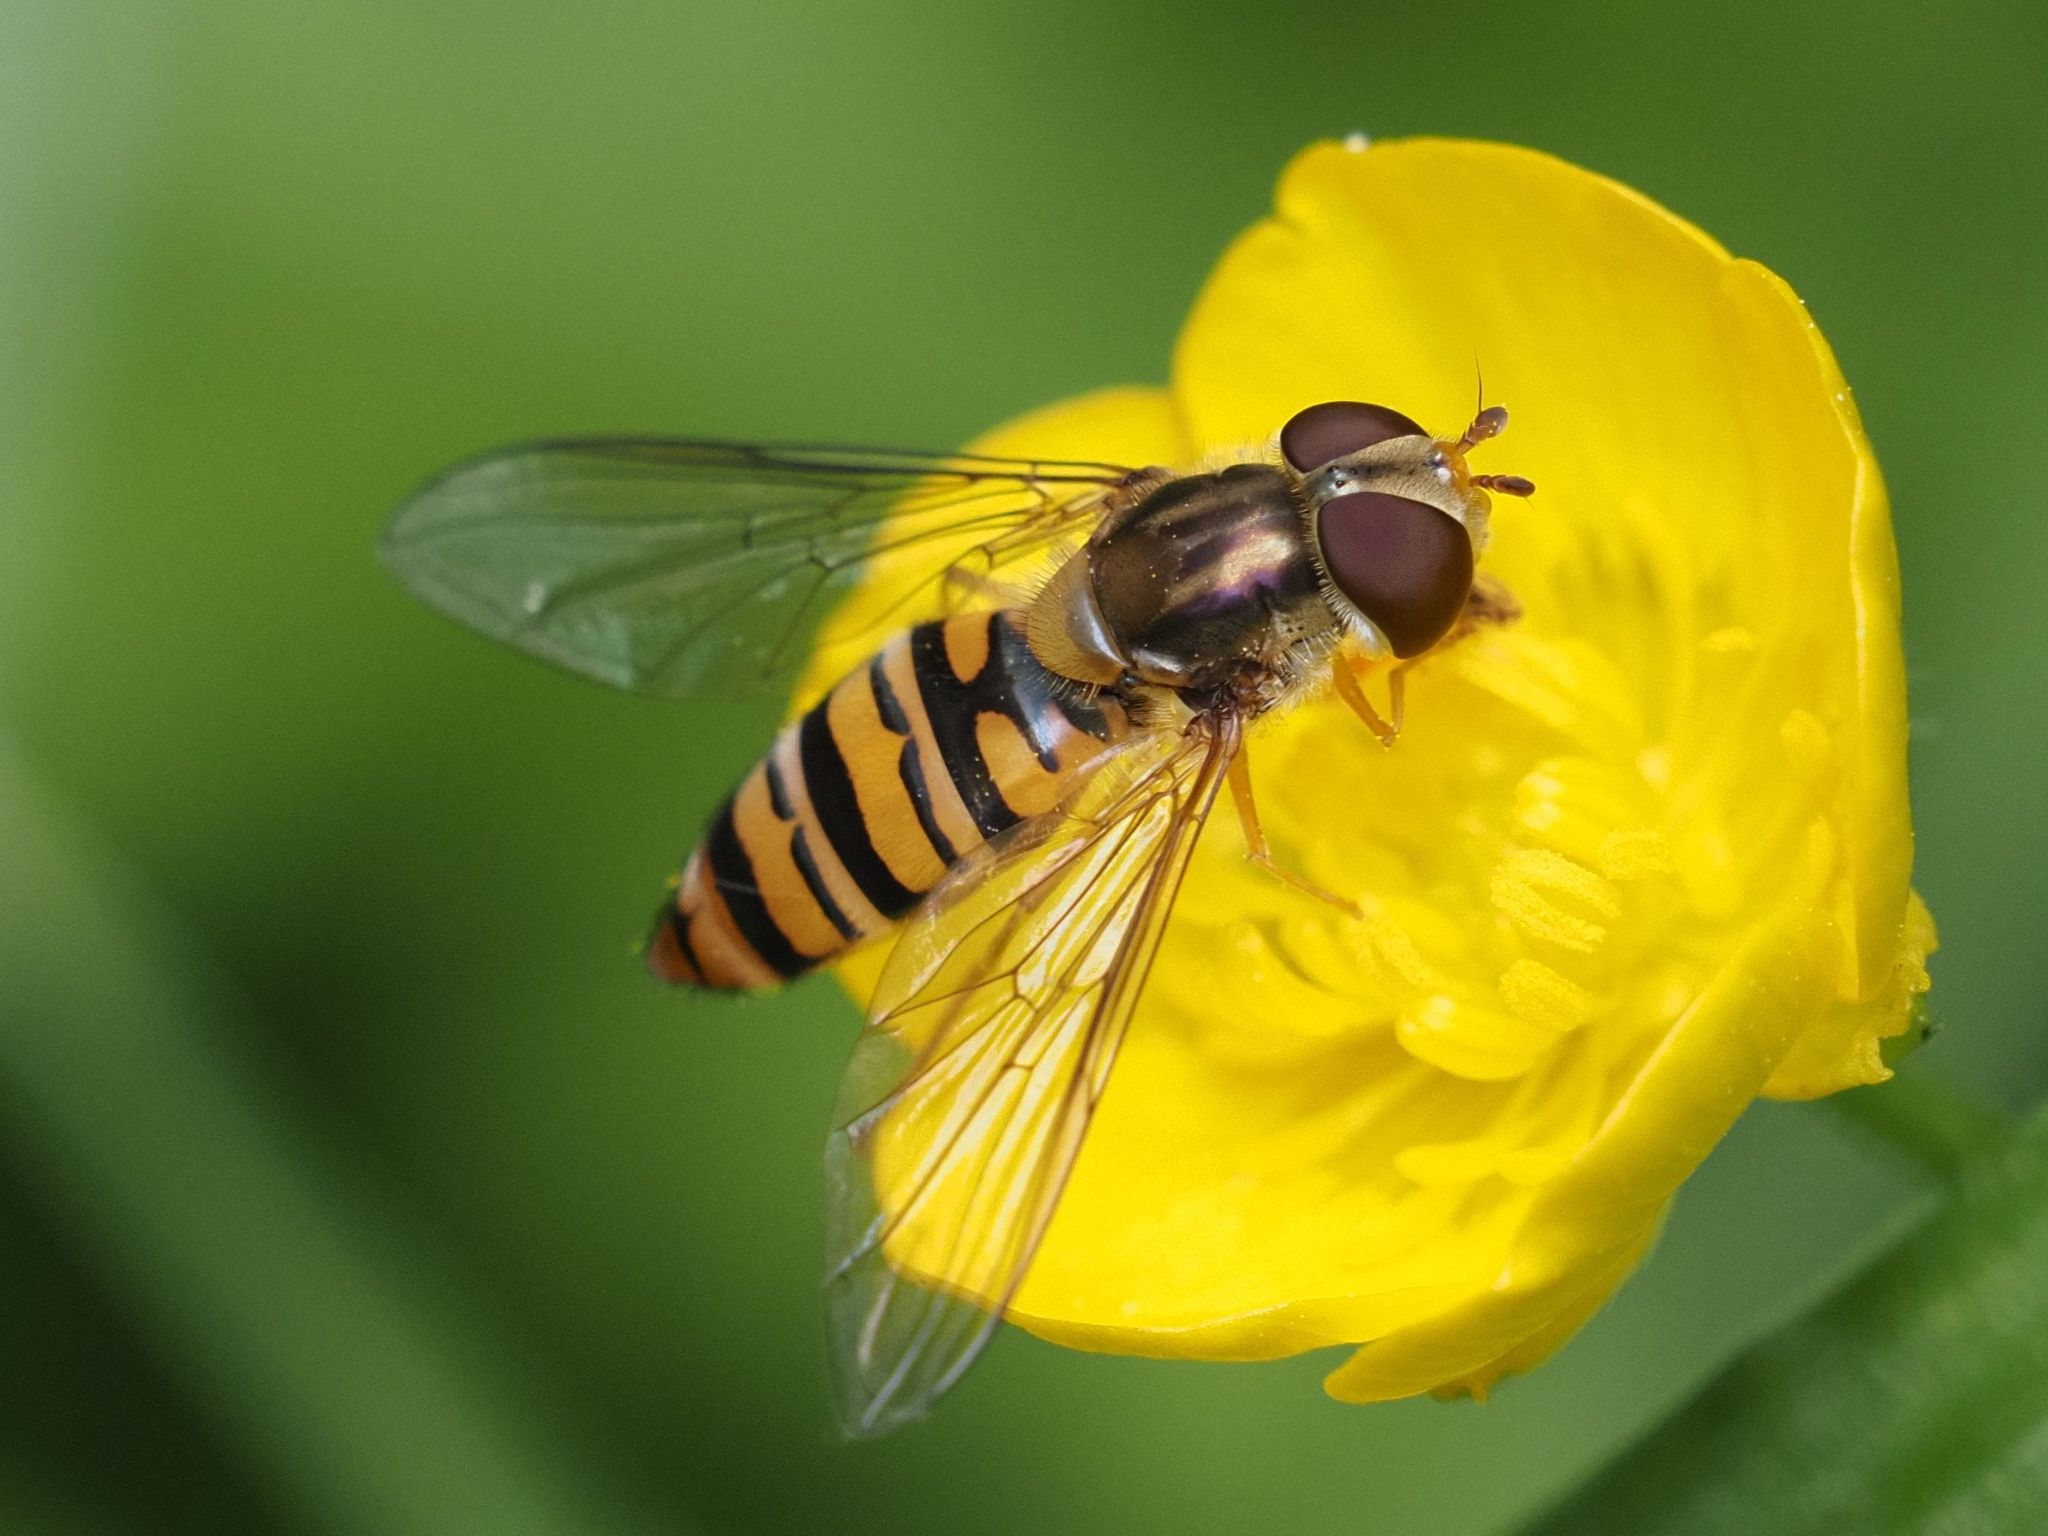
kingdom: Animalia
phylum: Arthropoda
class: Insecta
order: Diptera
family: Syrphidae
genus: Episyrphus
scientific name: Episyrphus balteatus
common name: Marmalade hoverfly
